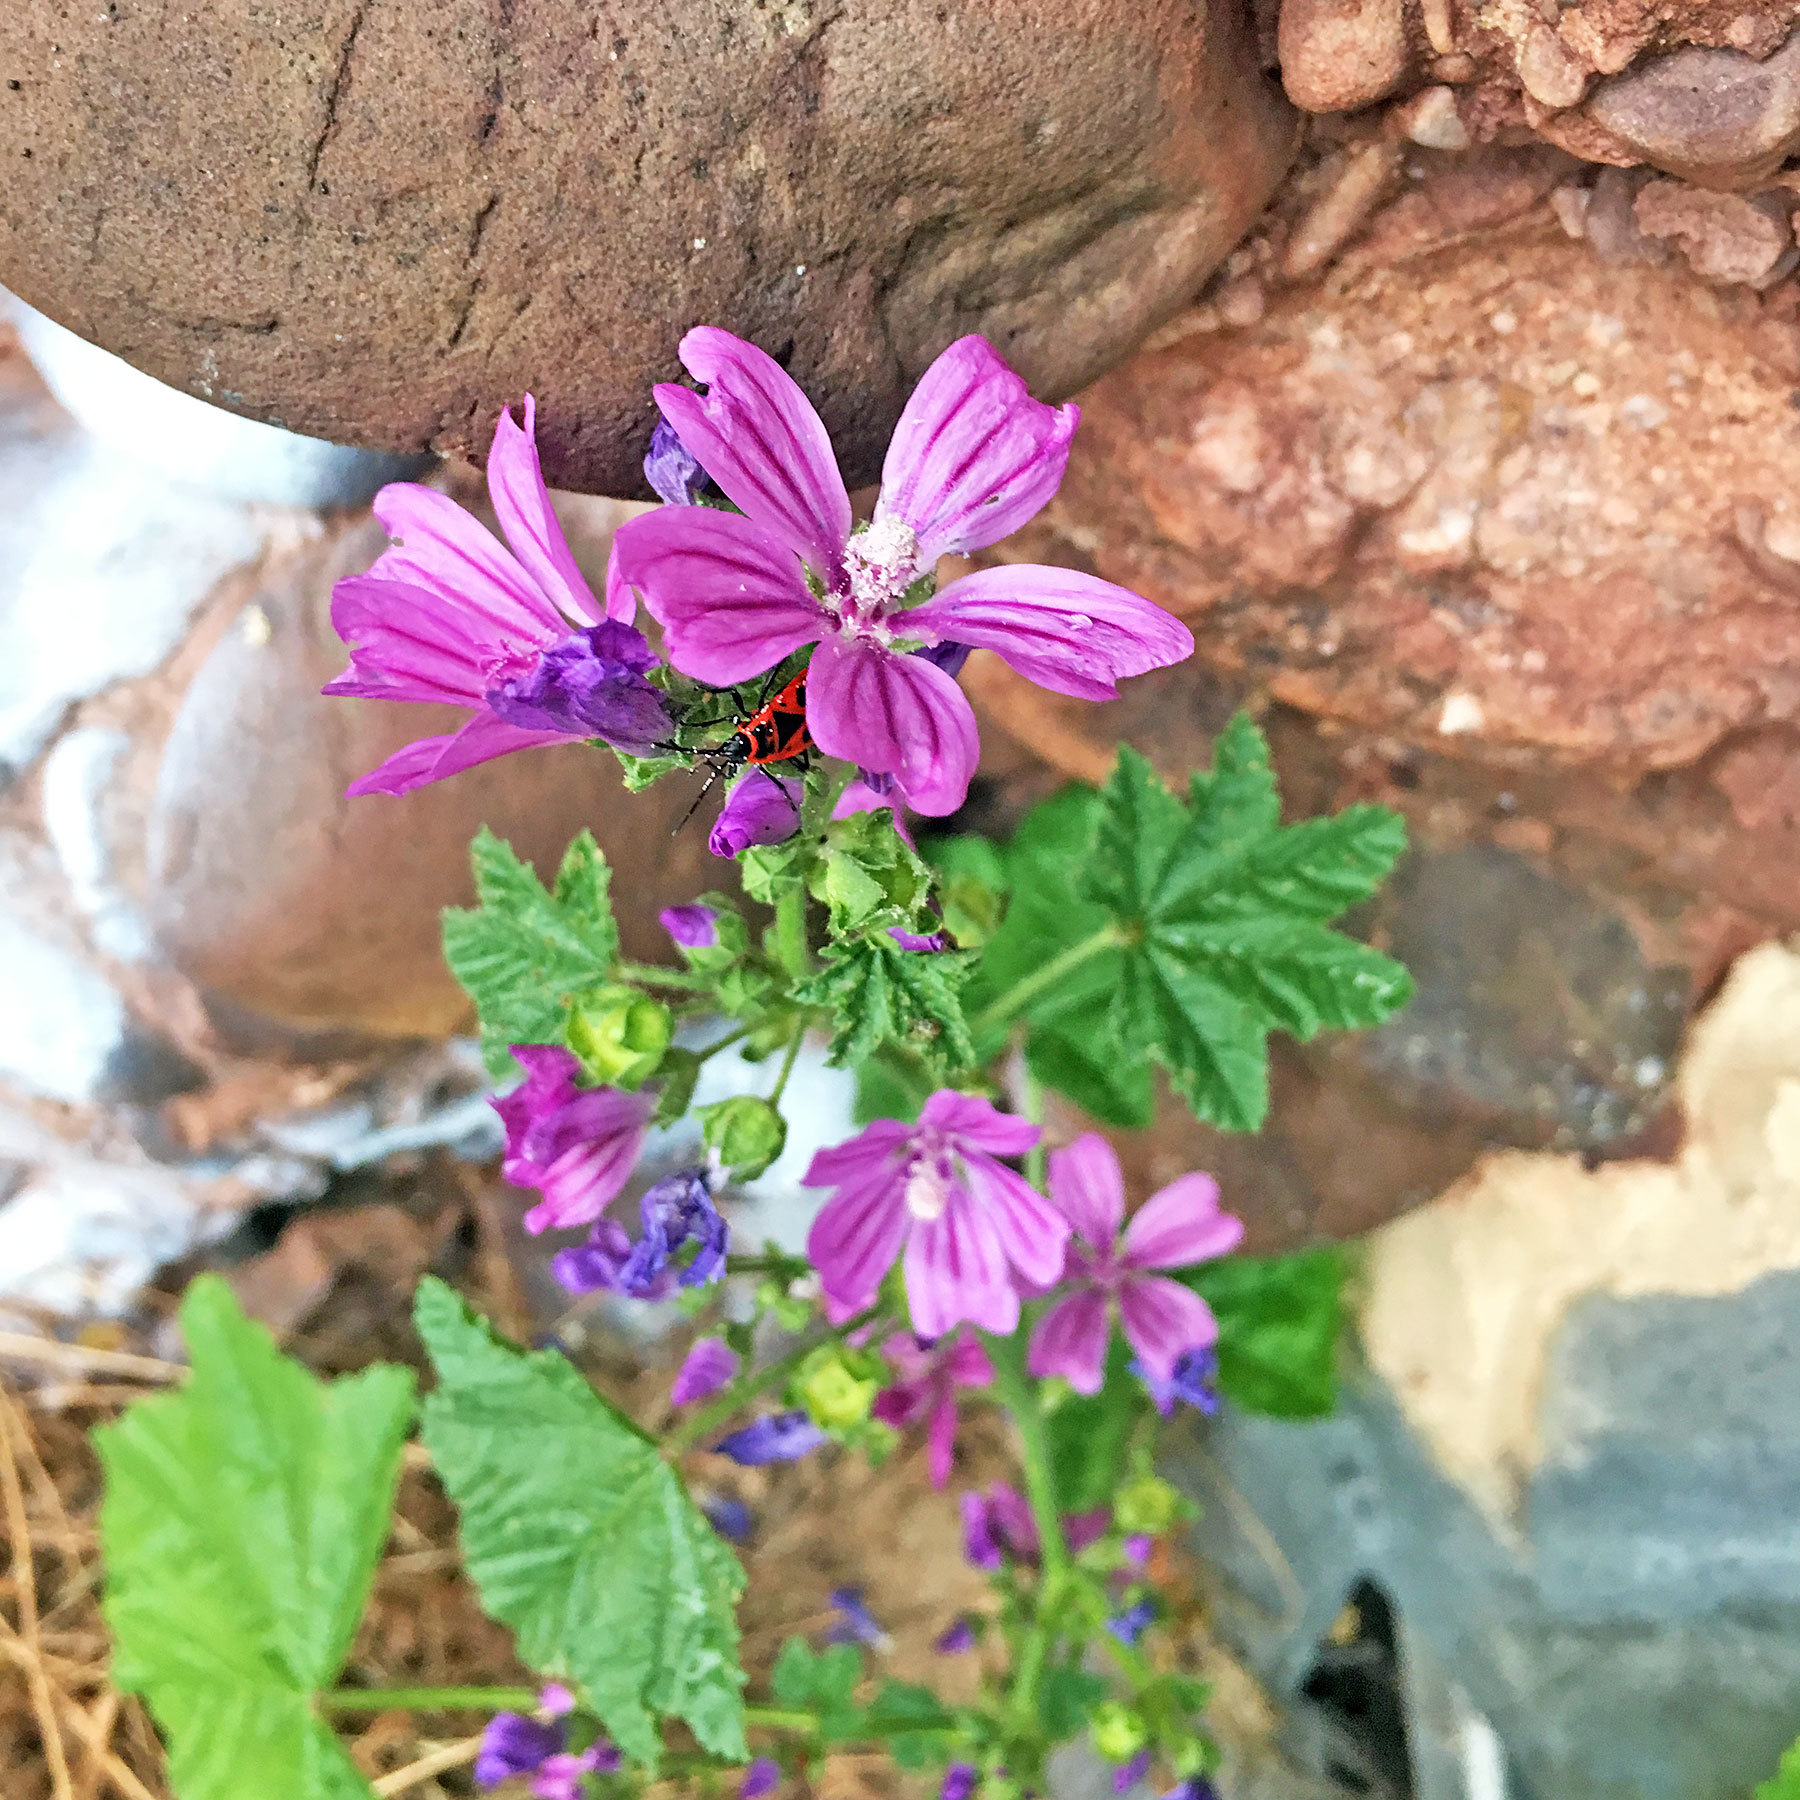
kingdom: Plantae
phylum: Tracheophyta
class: Magnoliopsida
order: Malvales
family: Malvaceae
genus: Malva
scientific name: Malva sylvestris
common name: Common mallow
